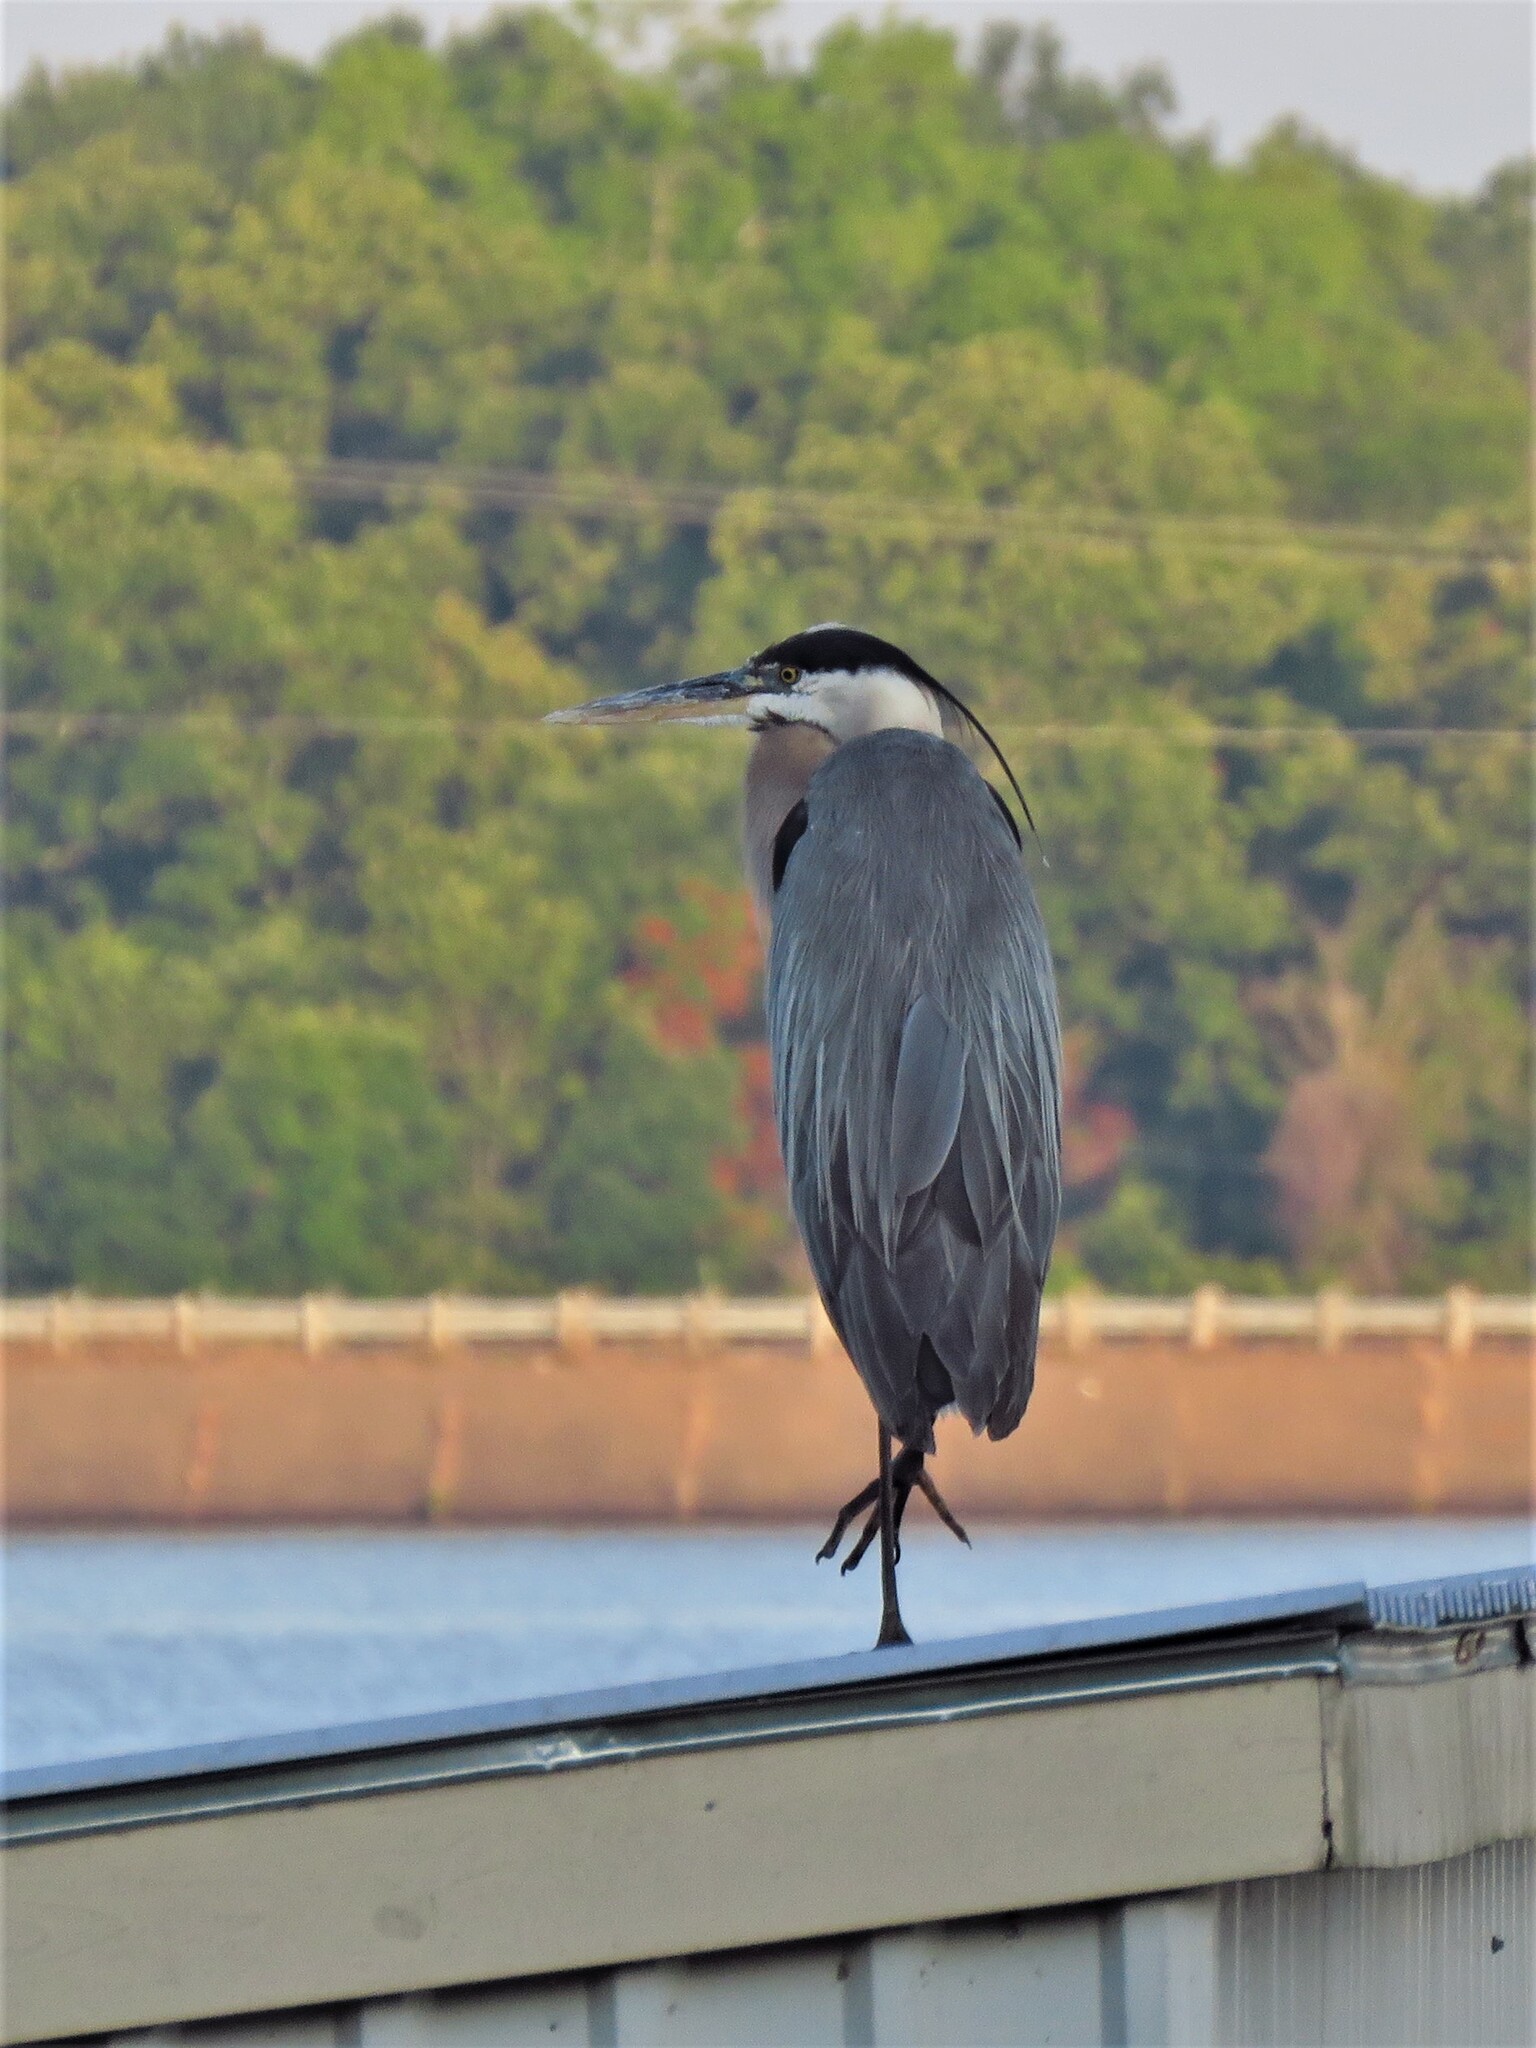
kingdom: Animalia
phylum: Chordata
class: Aves
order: Pelecaniformes
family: Ardeidae
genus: Ardea
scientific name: Ardea herodias
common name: Great blue heron
